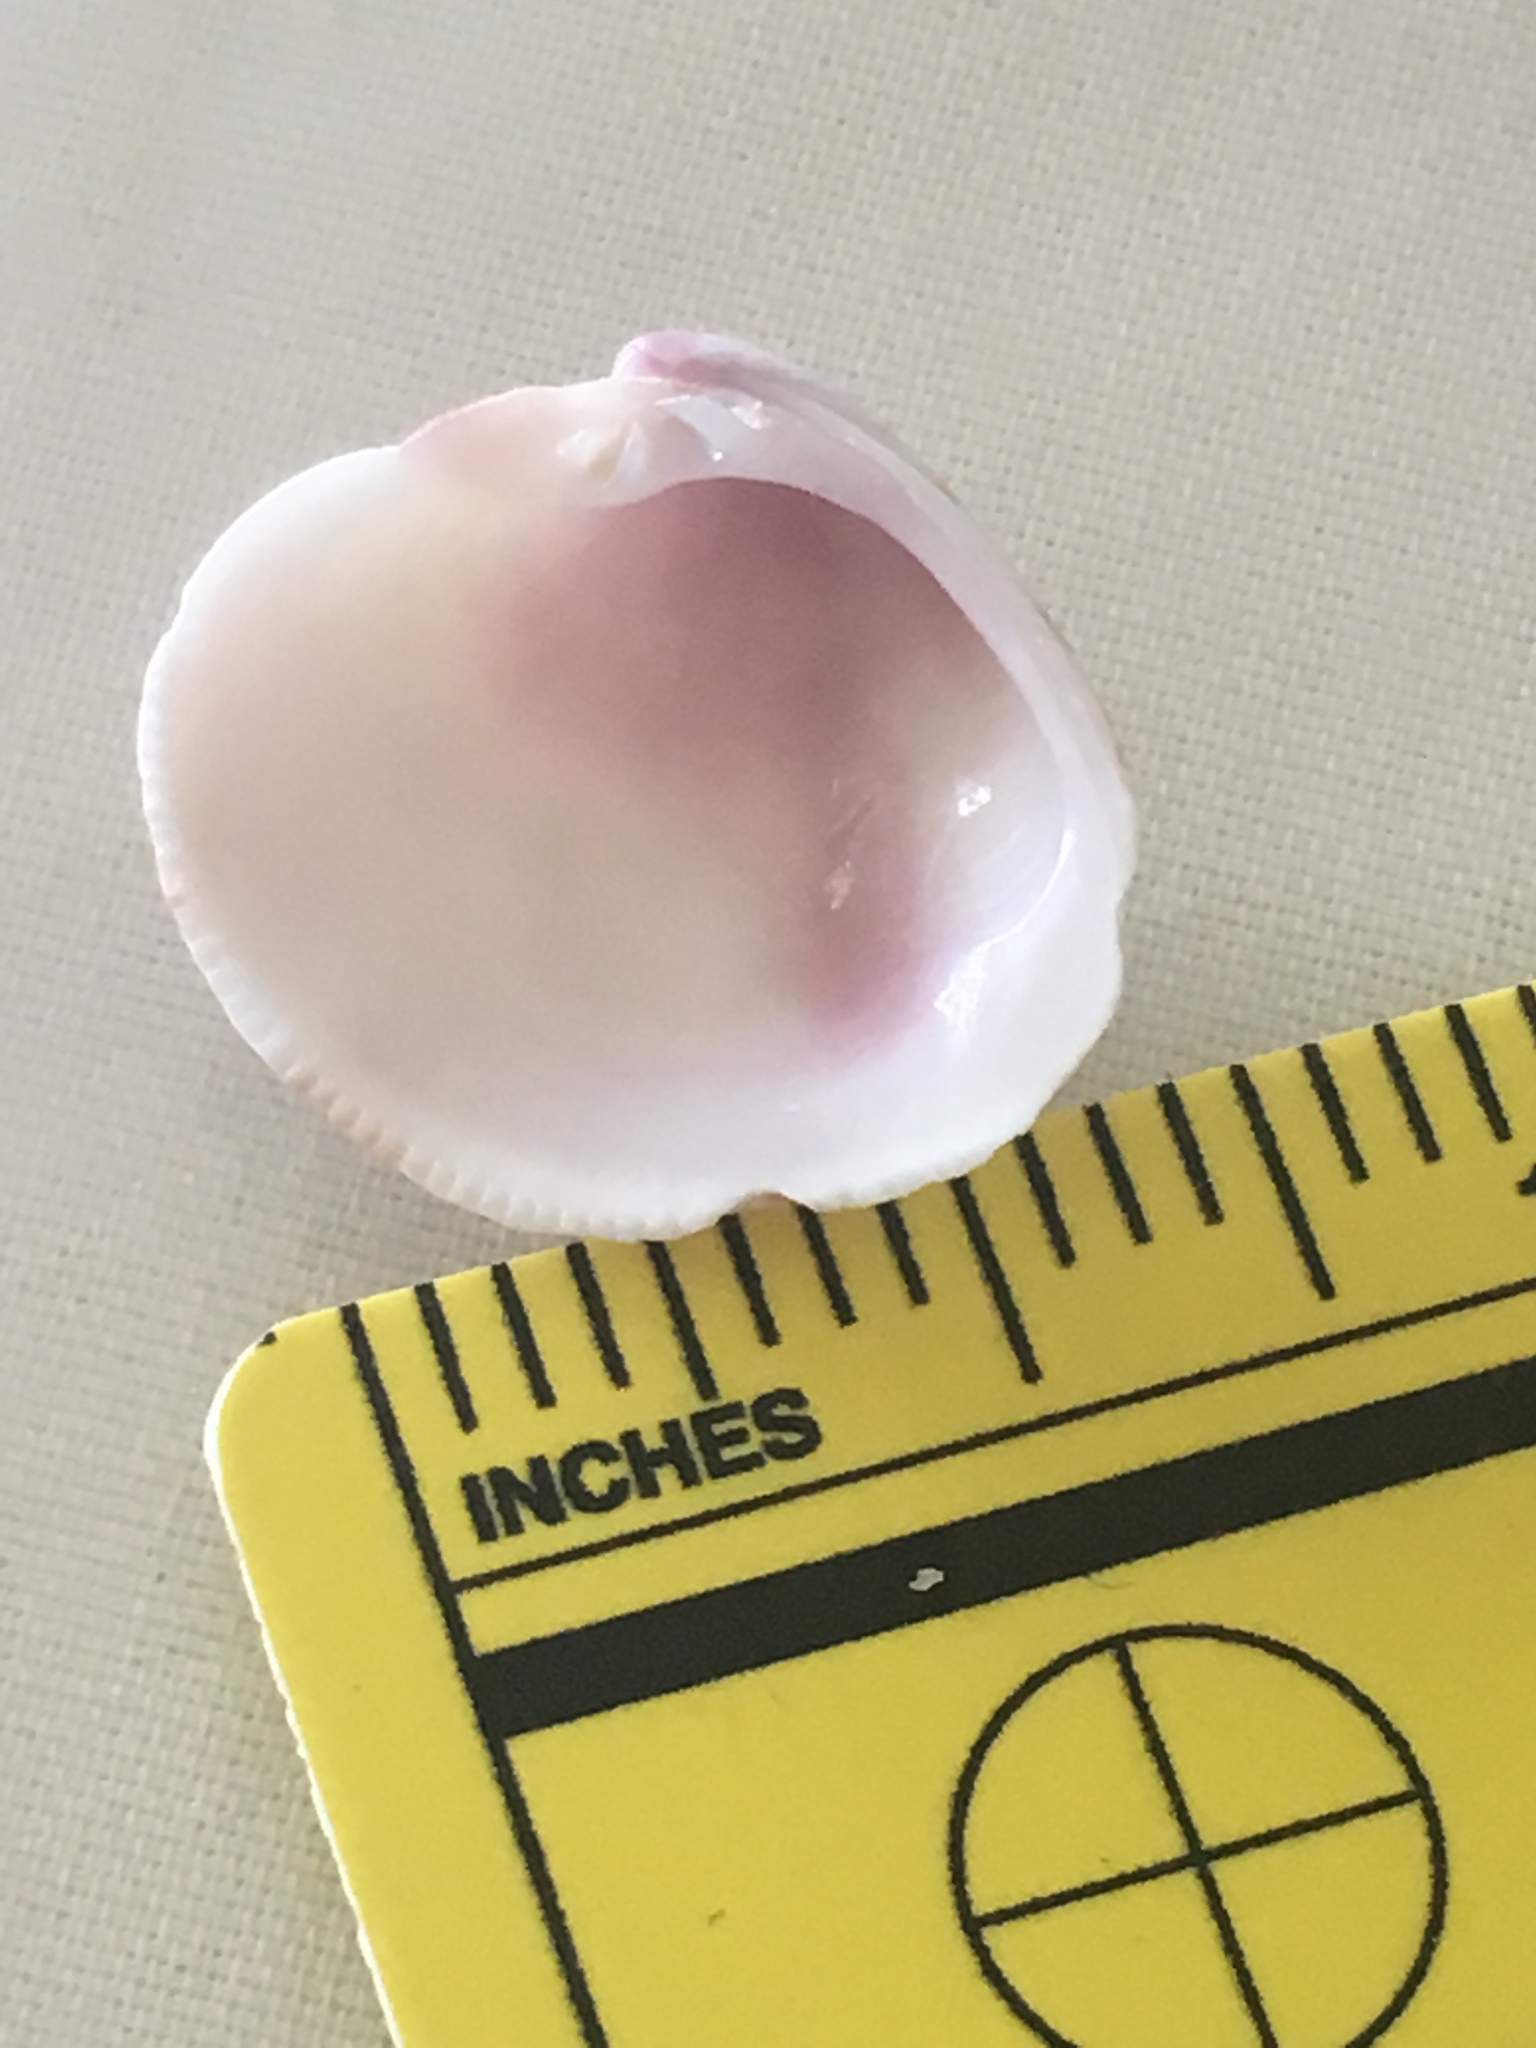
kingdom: Animalia
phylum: Mollusca
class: Bivalvia
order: Venerida
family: Veneridae
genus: Chionopsis
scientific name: Chionopsis intapurpurea
